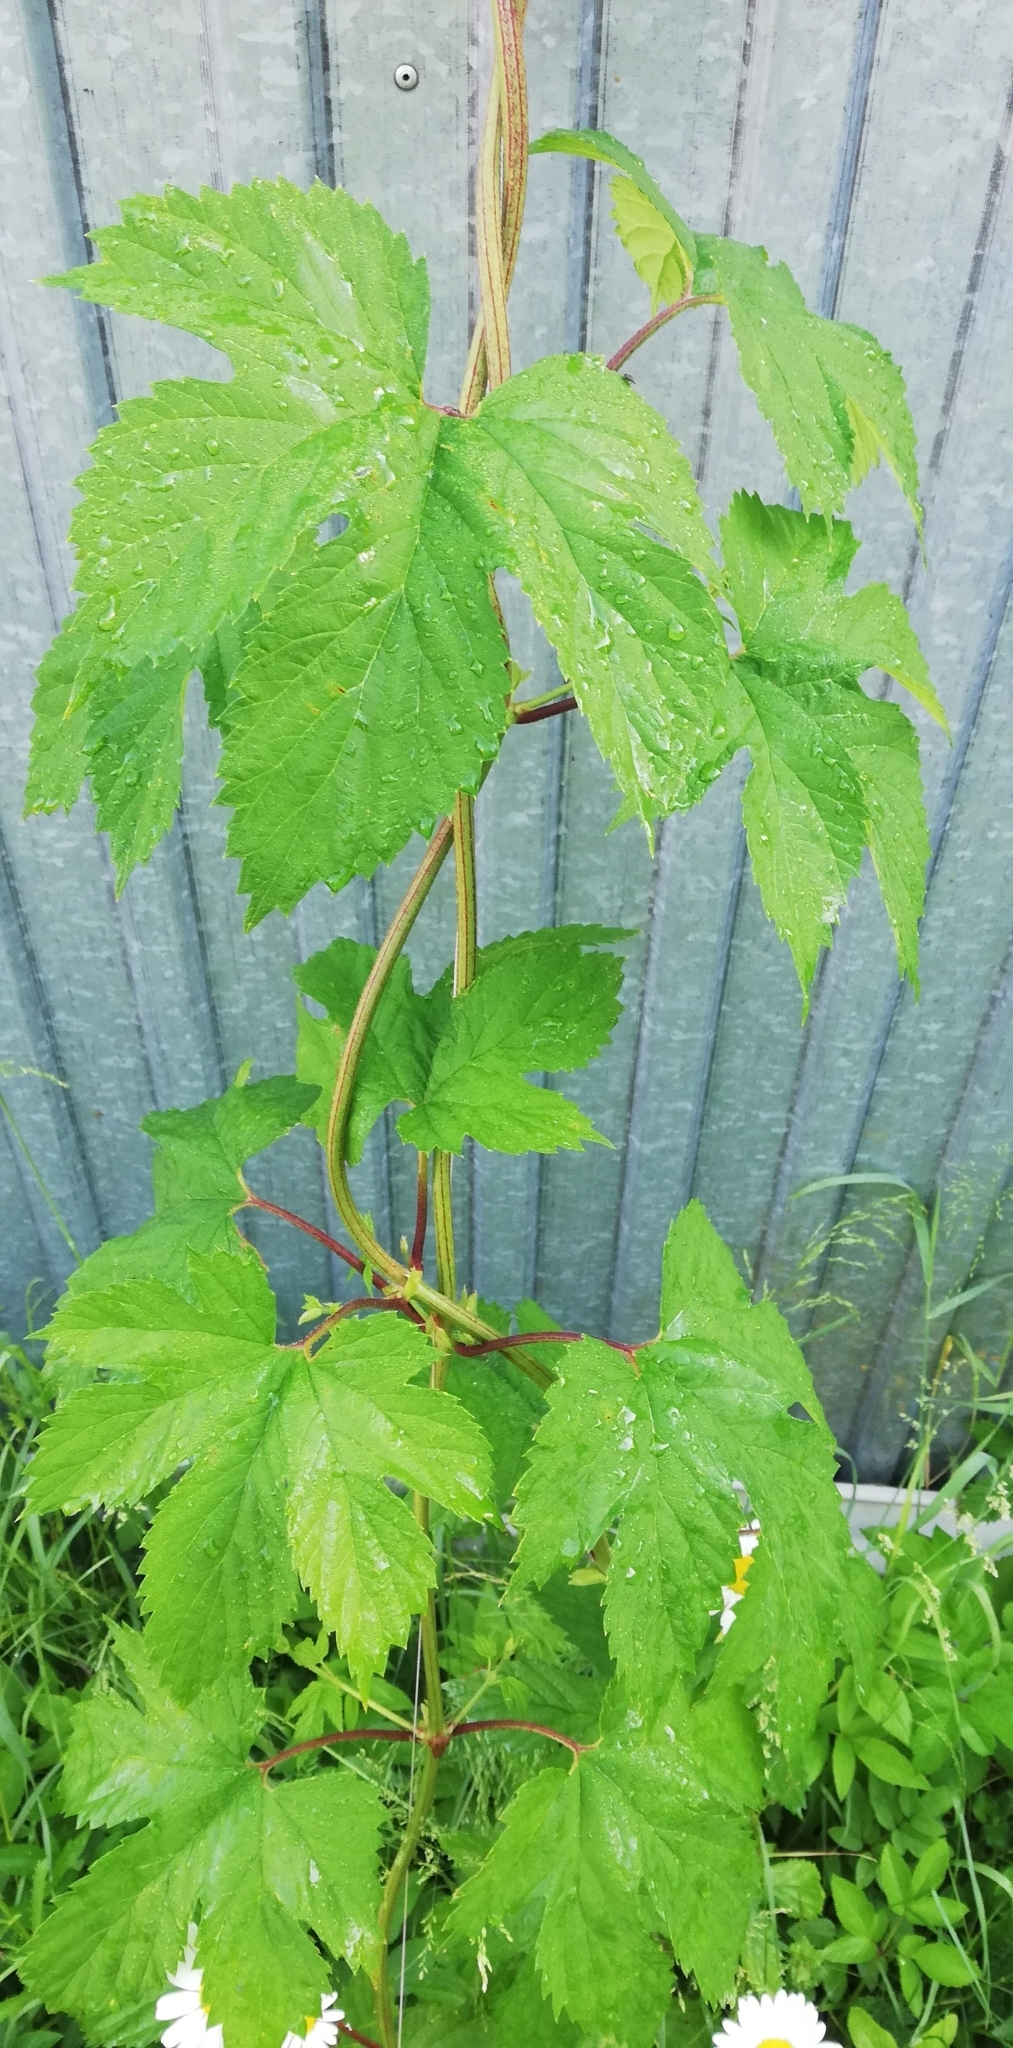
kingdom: Plantae
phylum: Tracheophyta
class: Magnoliopsida
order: Rosales
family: Cannabaceae
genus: Humulus
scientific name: Humulus lupulus
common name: Hop
